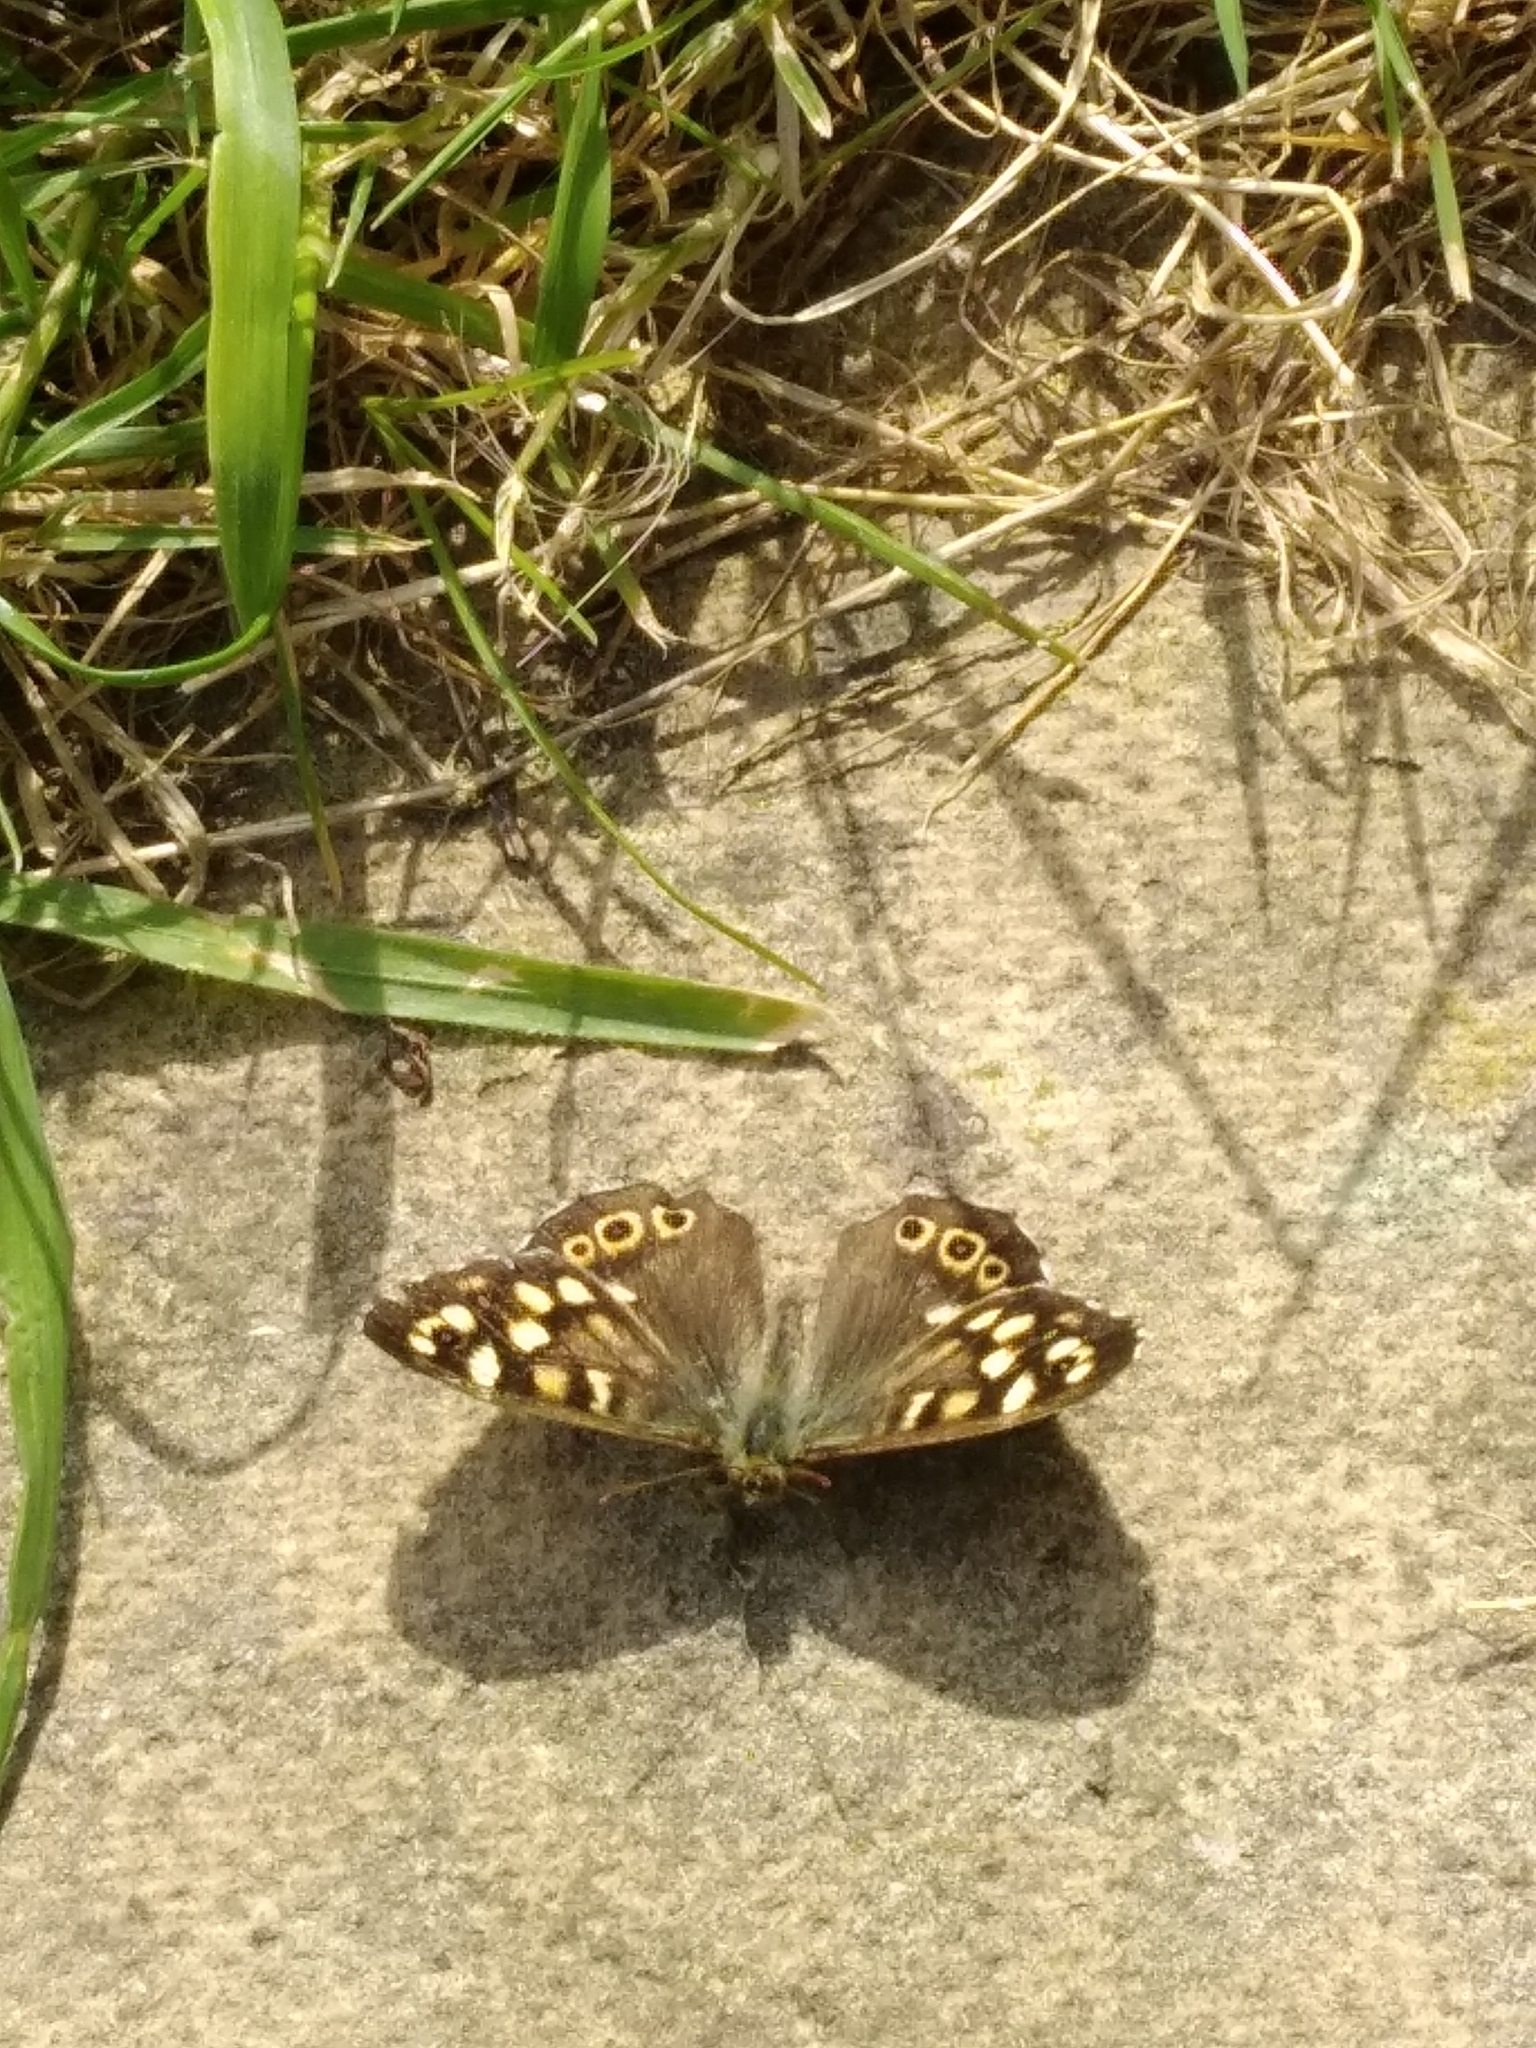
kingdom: Animalia
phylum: Arthropoda
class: Insecta
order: Lepidoptera
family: Nymphalidae
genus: Pararge
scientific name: Pararge aegeria
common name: Speckled wood
